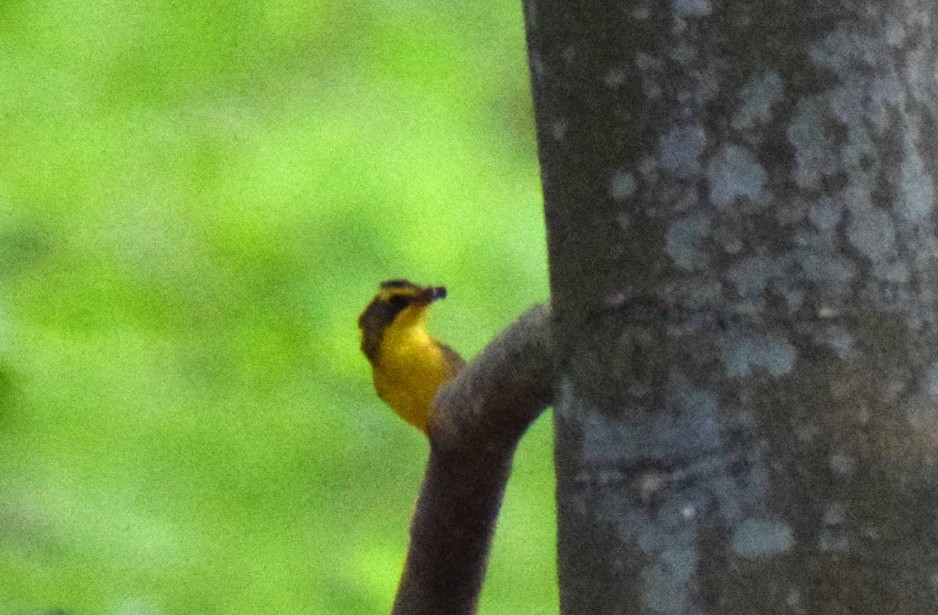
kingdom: Animalia
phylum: Chordata
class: Aves
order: Passeriformes
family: Parulidae
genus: Geothlypis
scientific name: Geothlypis formosa
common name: Kentucky warbler
